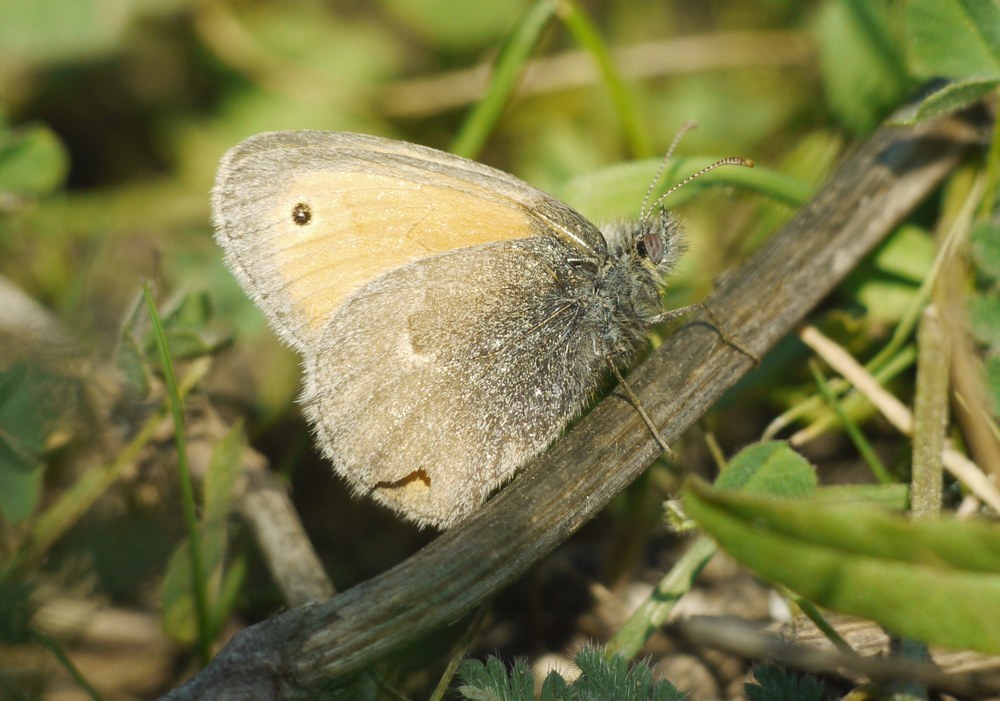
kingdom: Animalia
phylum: Arthropoda
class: Insecta
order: Lepidoptera
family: Nymphalidae
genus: Coenonympha
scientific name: Coenonympha pamphilus
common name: Small heath
